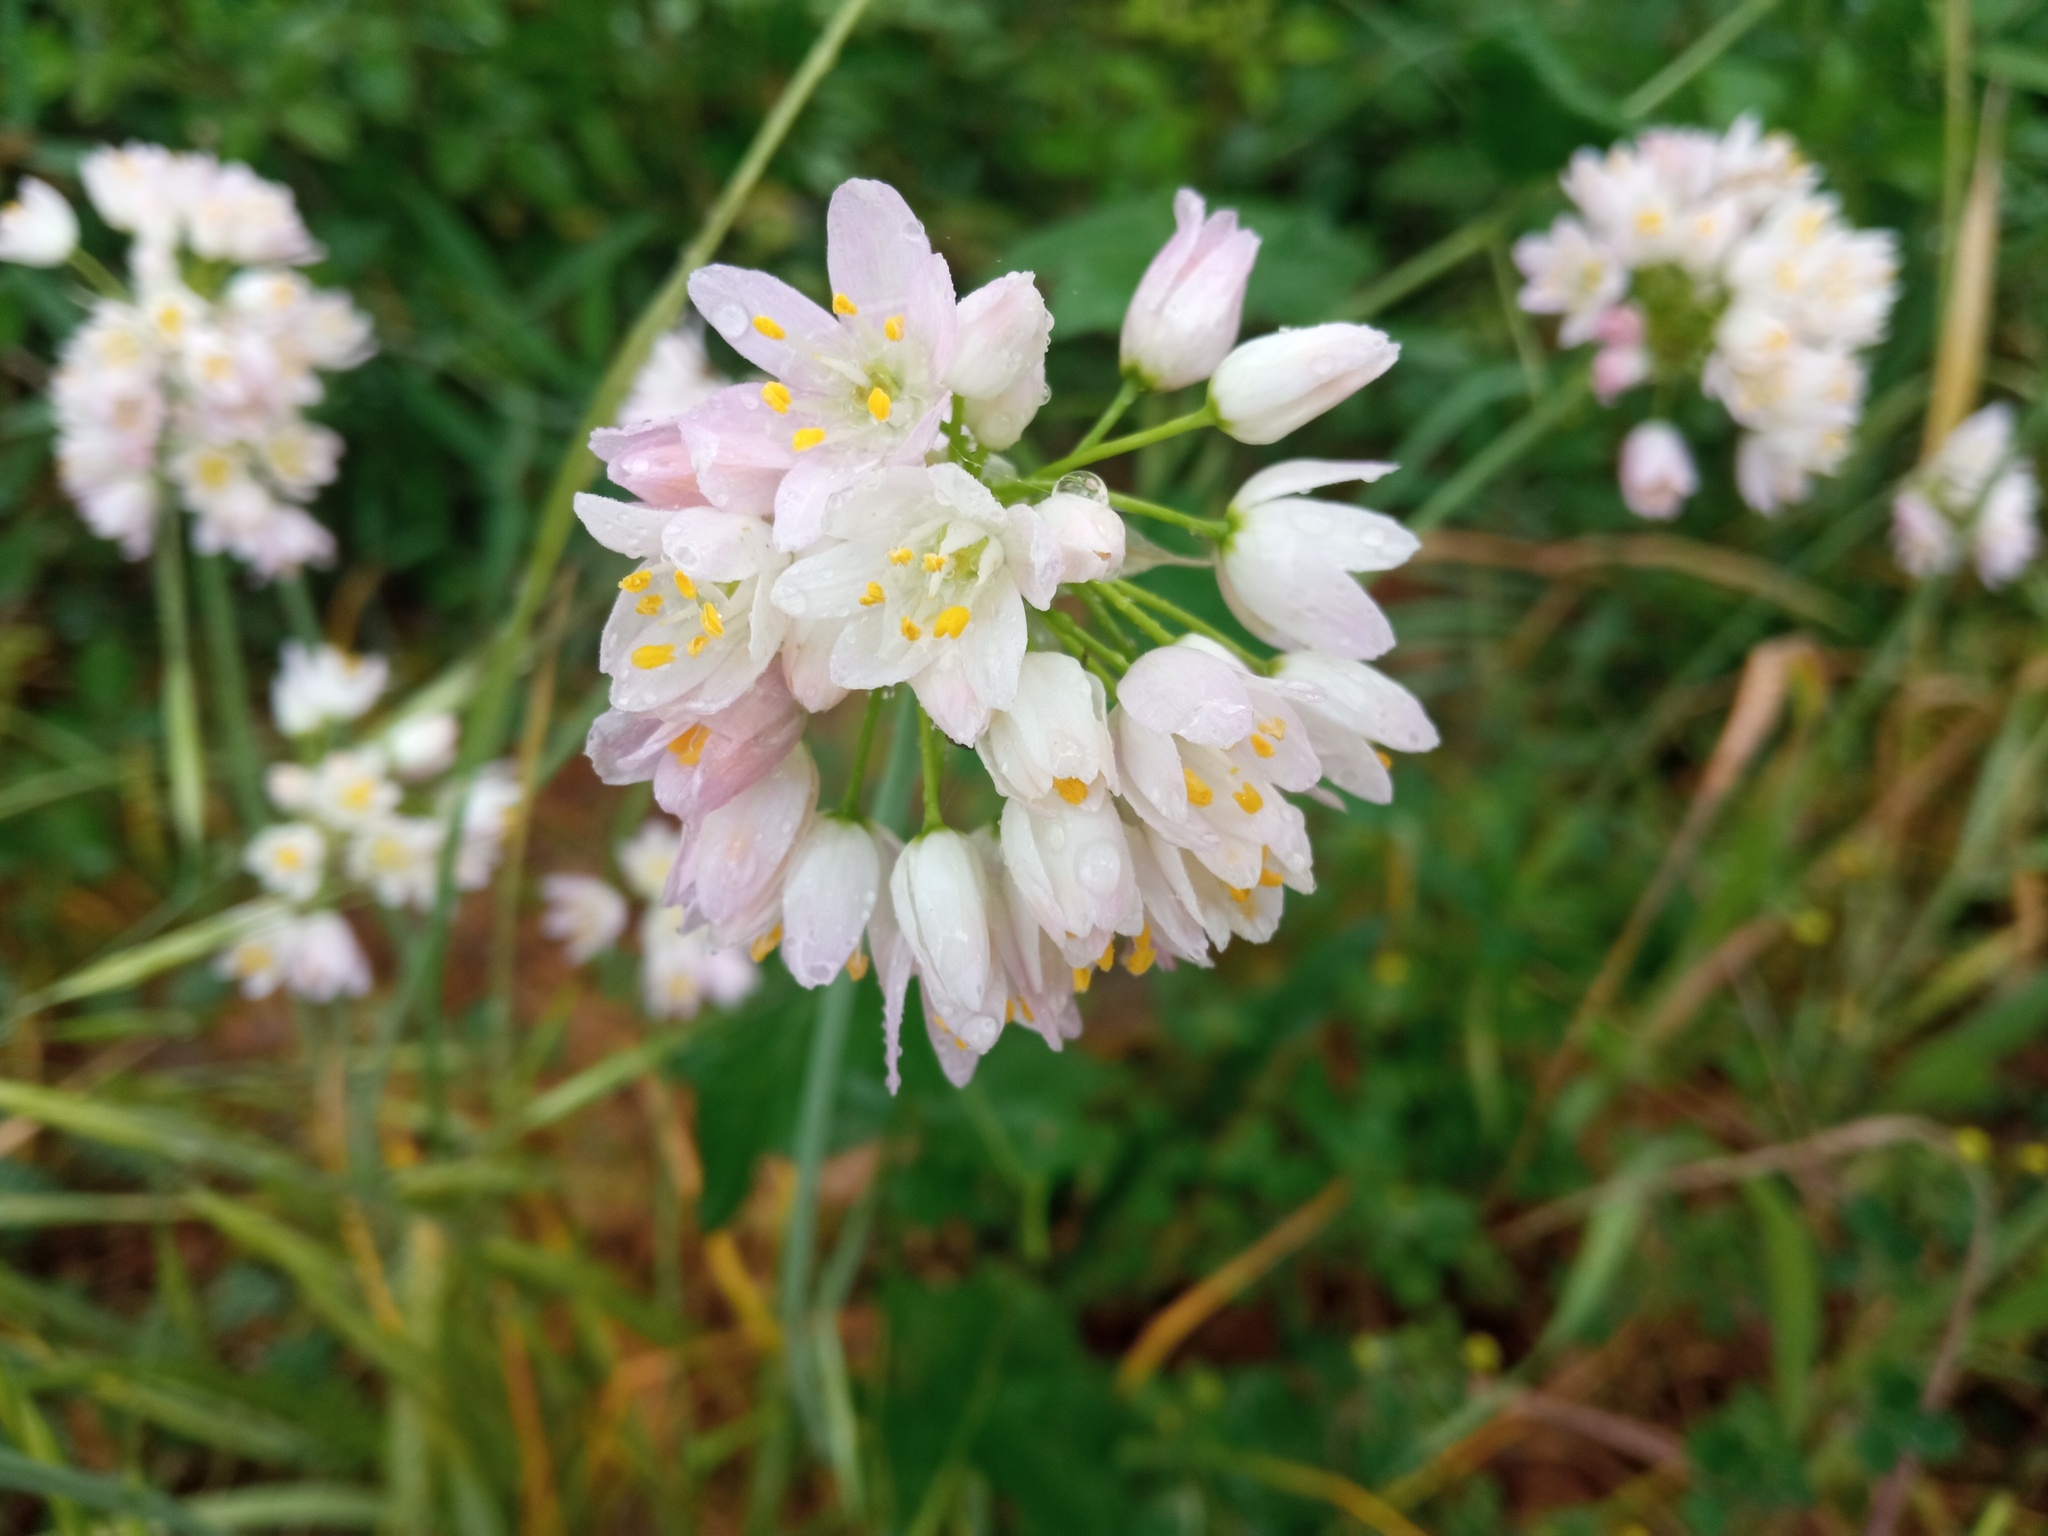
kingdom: Plantae
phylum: Tracheophyta
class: Liliopsida
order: Asparagales
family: Amaryllidaceae
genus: Allium
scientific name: Allium roseum
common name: Rosy garlic
